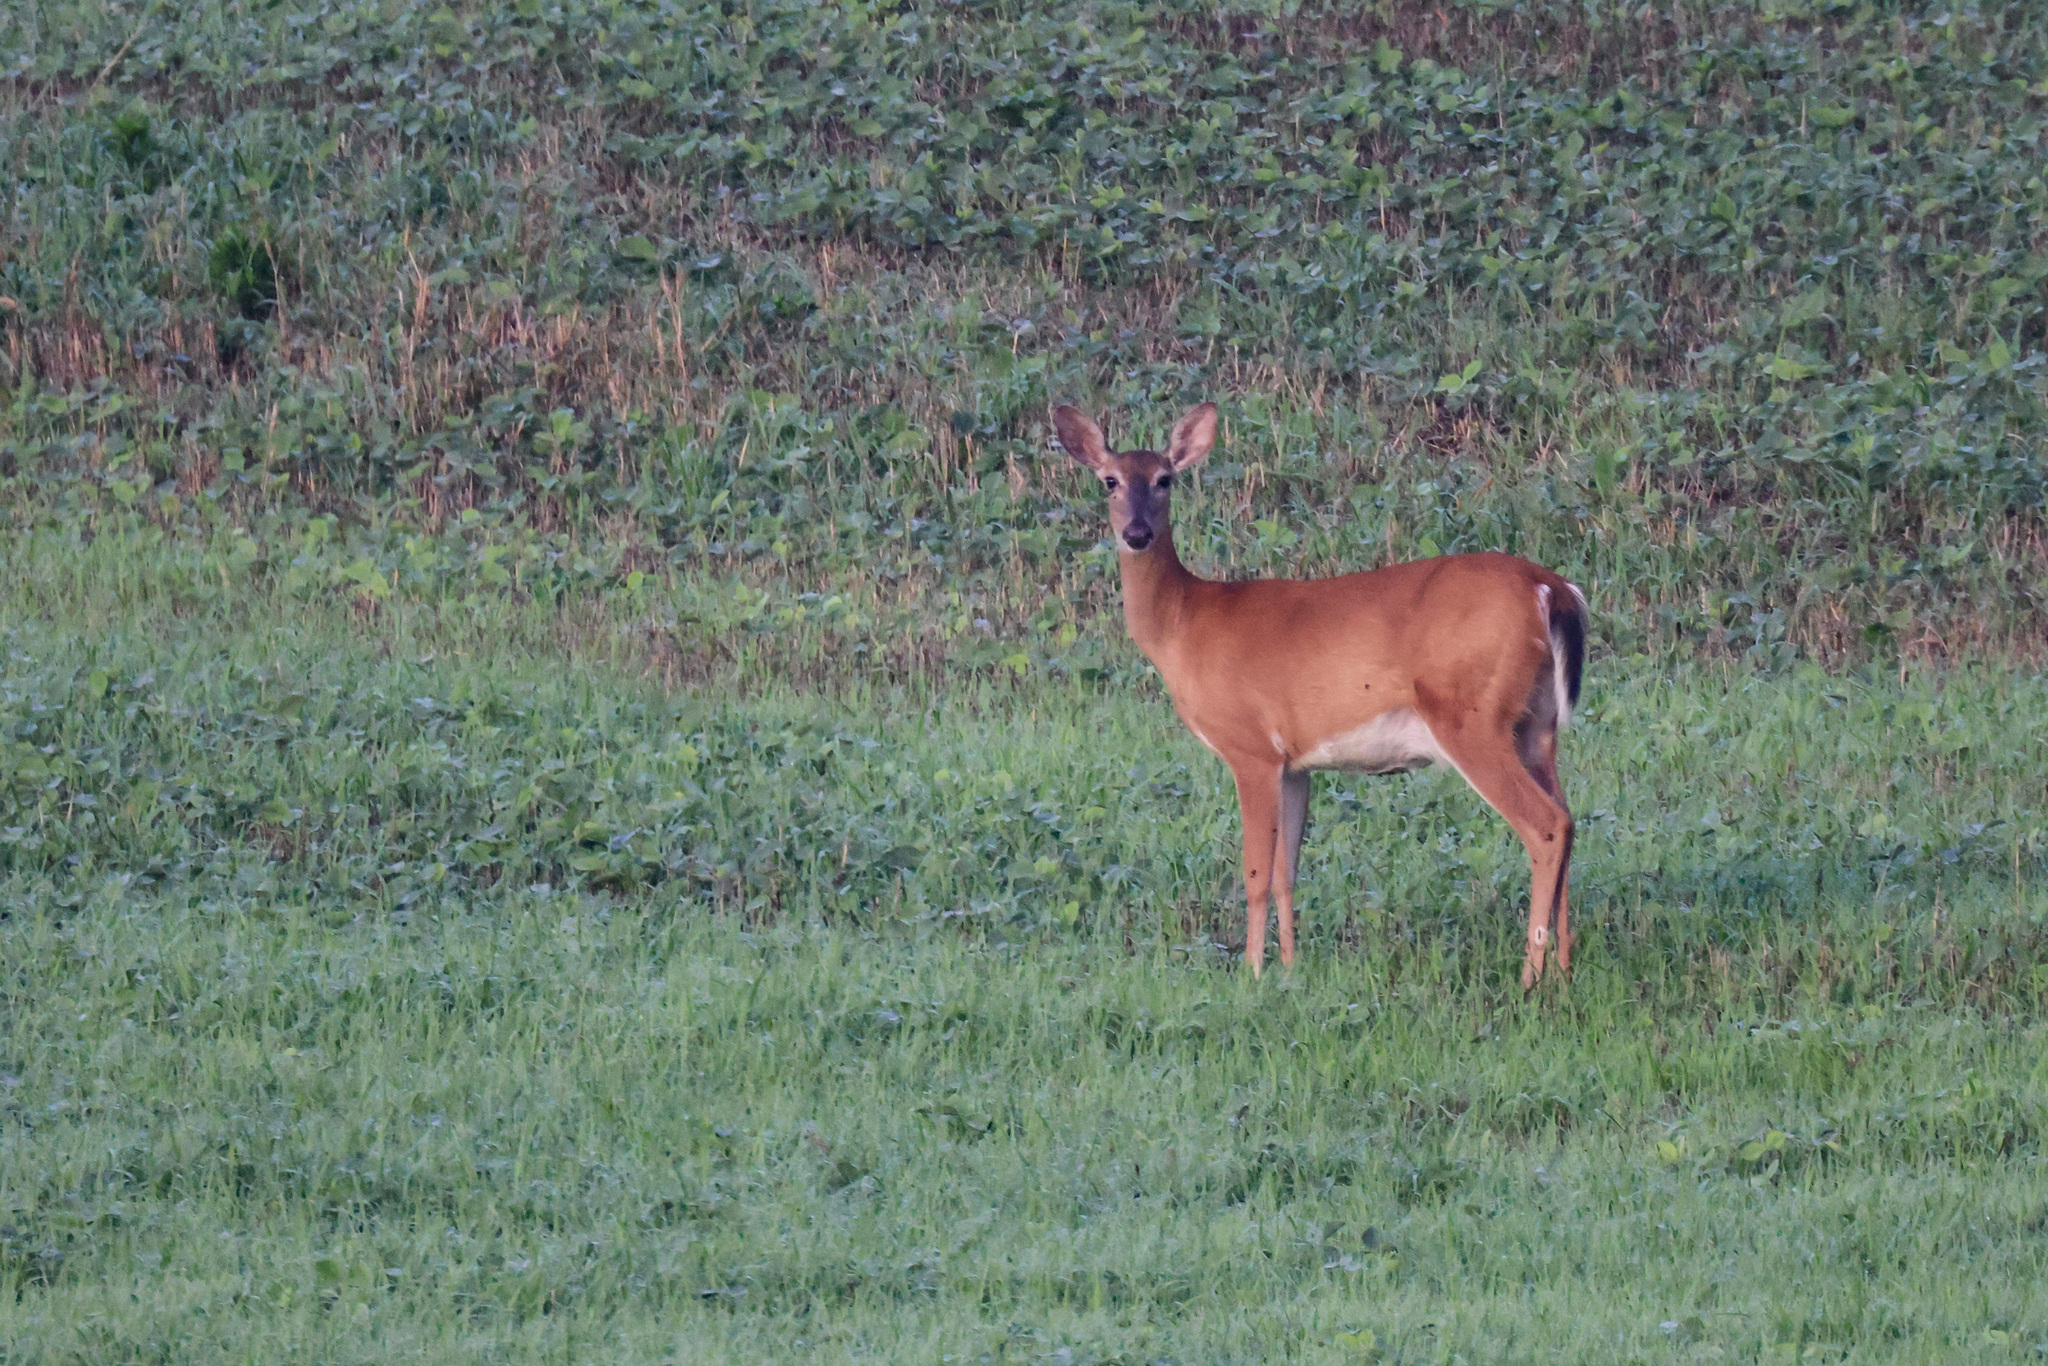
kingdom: Animalia
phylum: Chordata
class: Mammalia
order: Artiodactyla
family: Cervidae
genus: Odocoileus
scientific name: Odocoileus virginianus
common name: White-tailed deer
